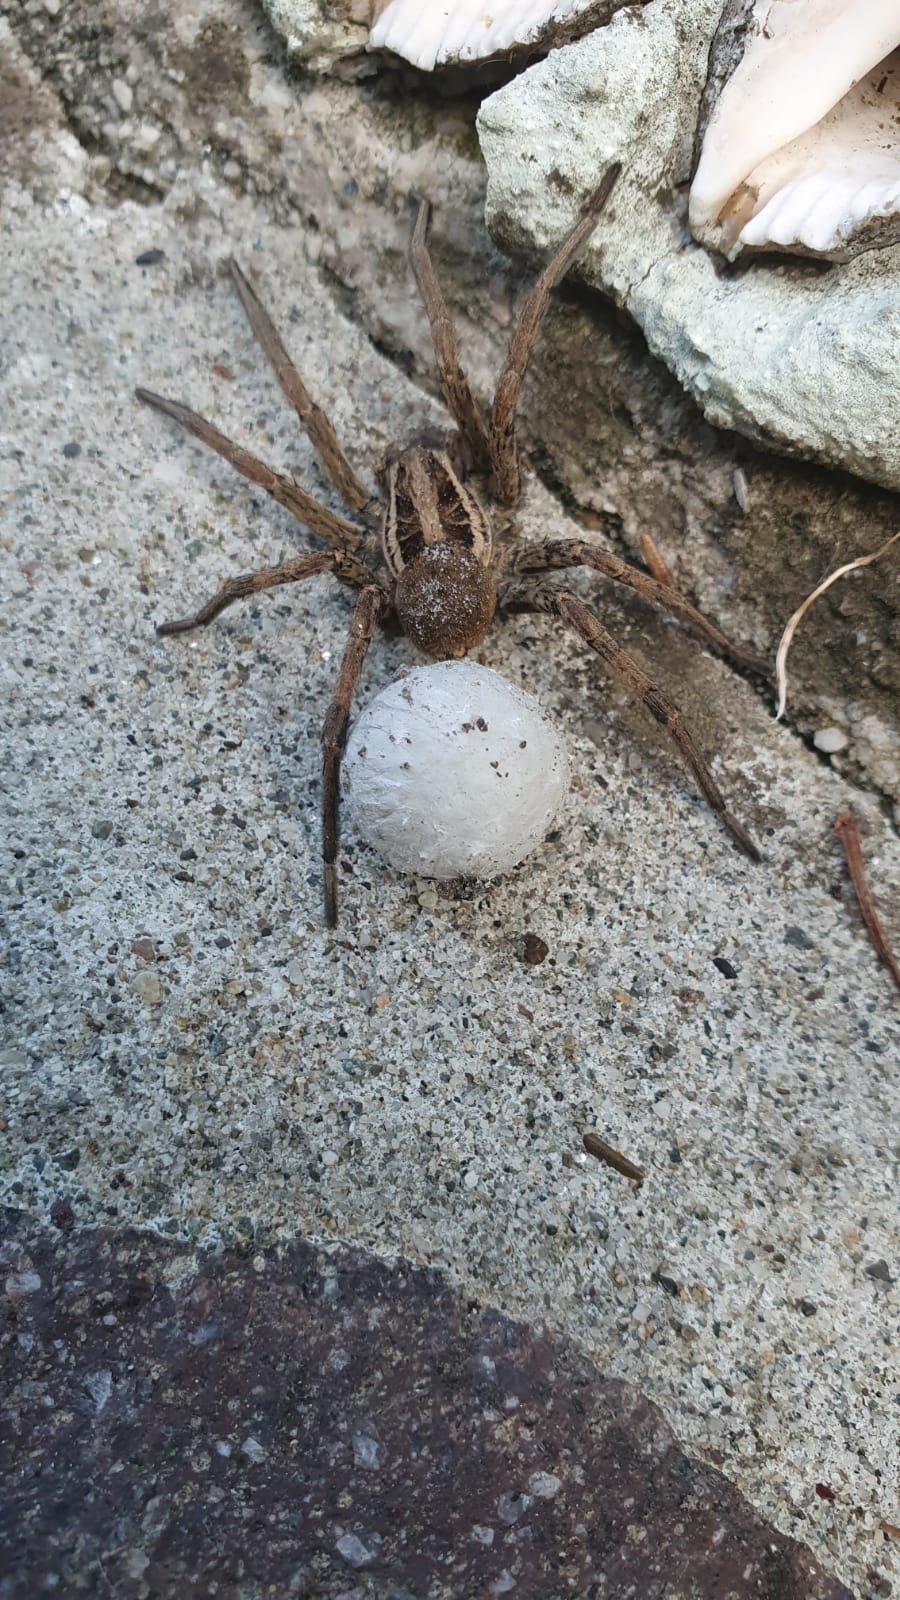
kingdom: Animalia
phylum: Arthropoda
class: Arachnida
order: Araneae
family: Lycosidae
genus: Hogna
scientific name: Hogna radiata
